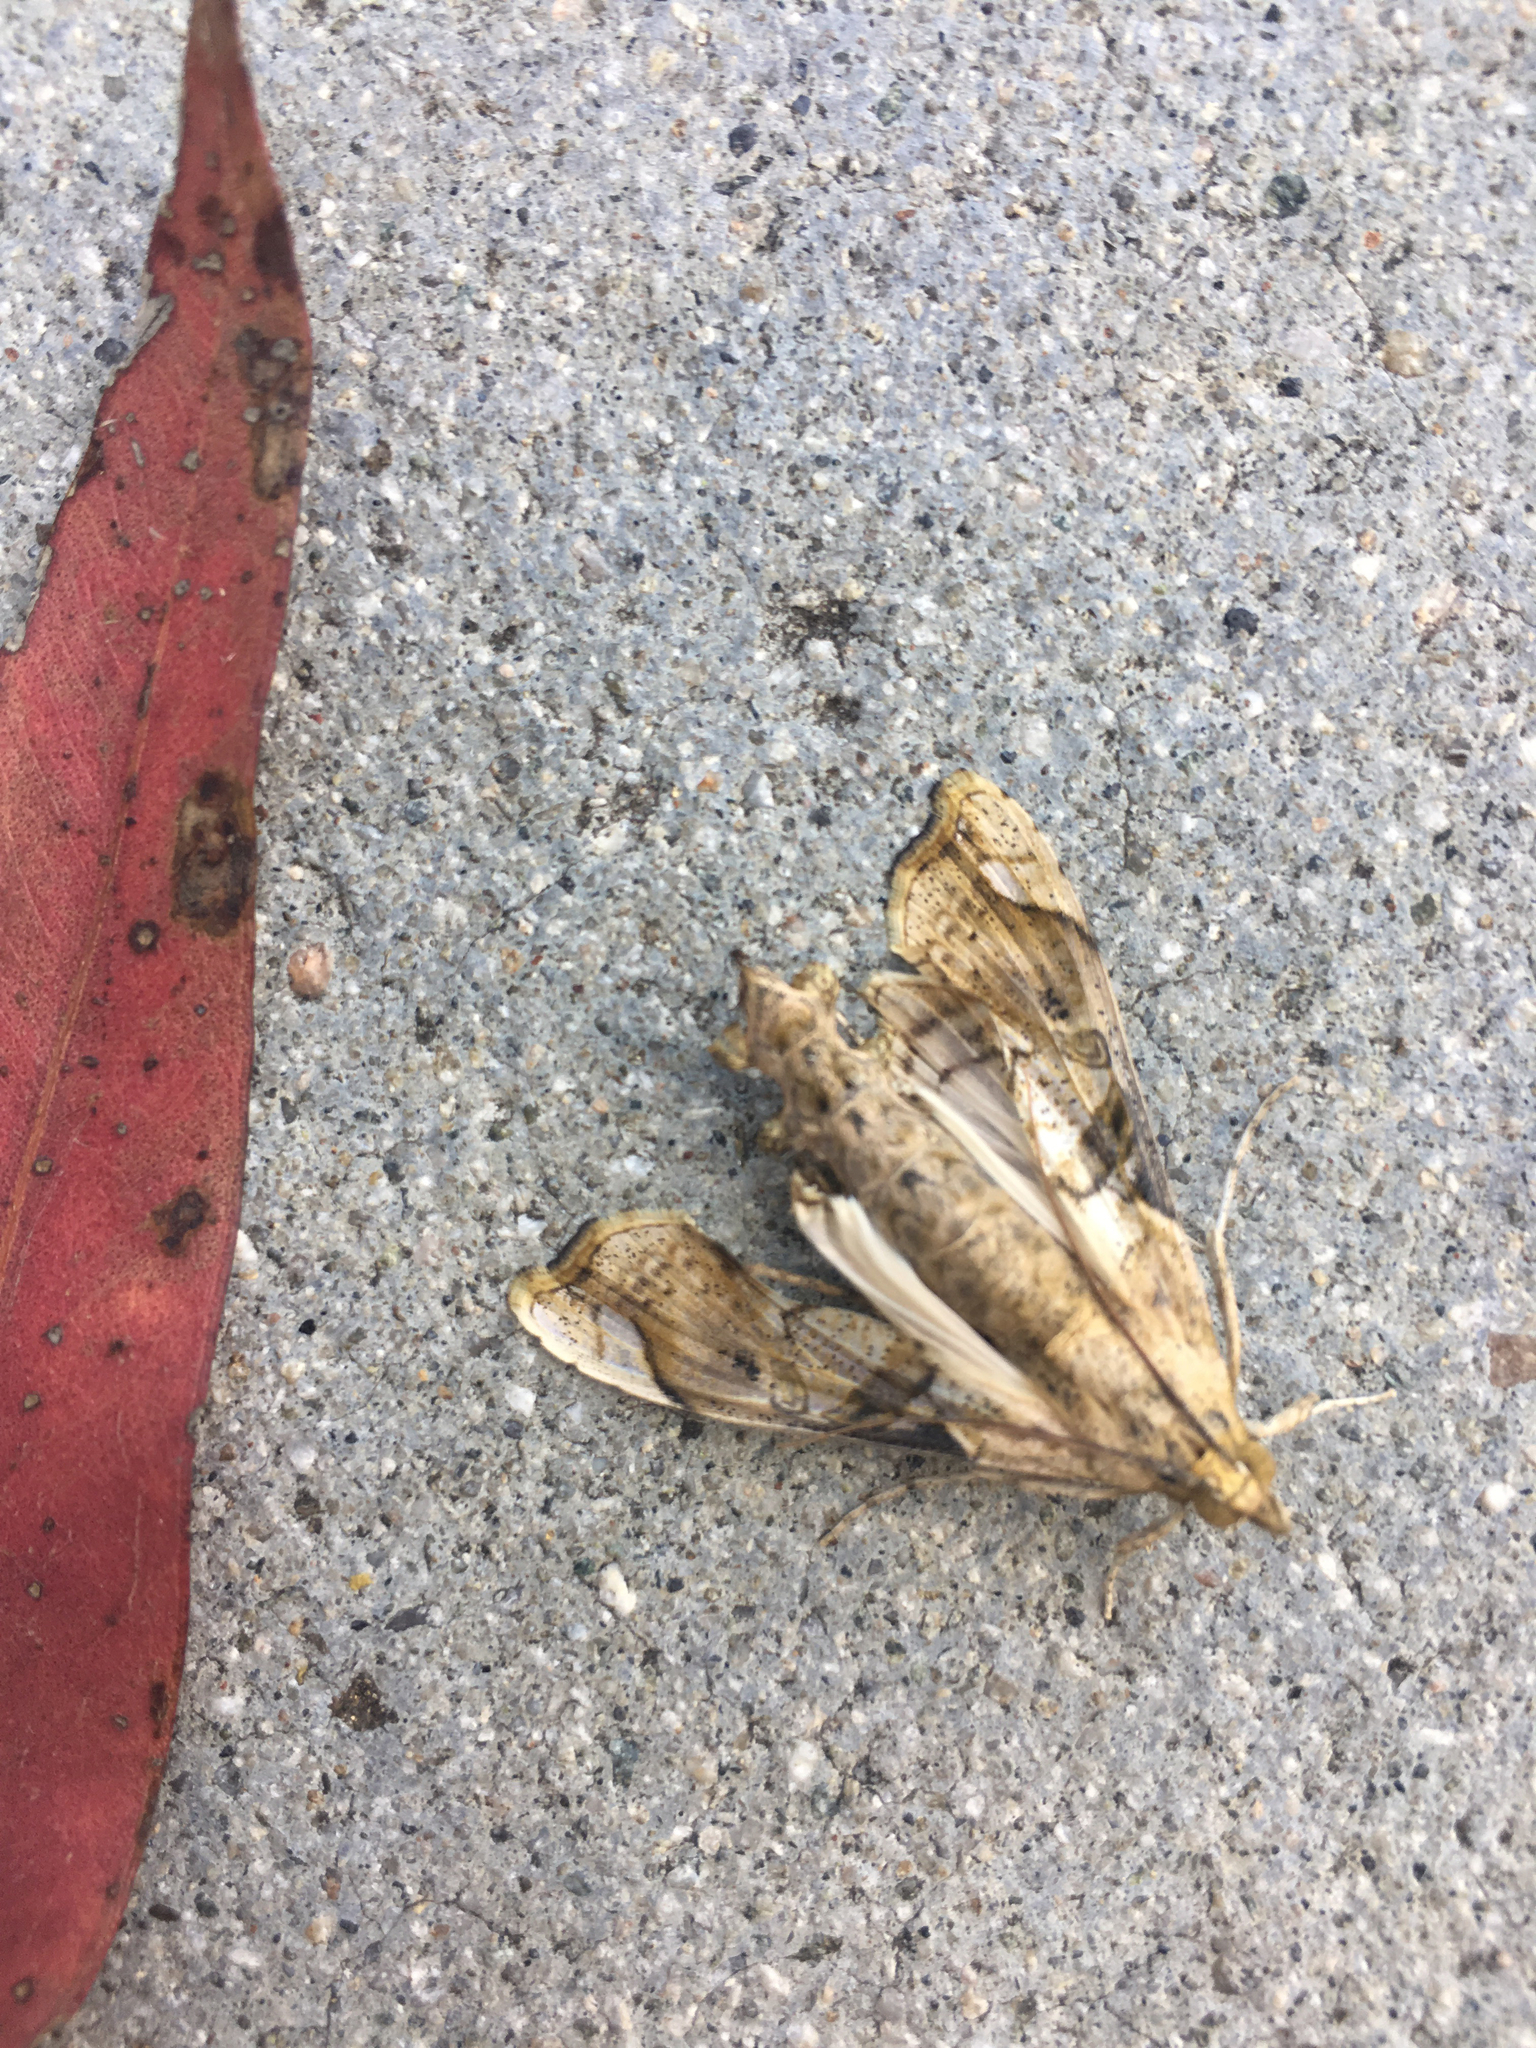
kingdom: Animalia
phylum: Arthropoda
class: Insecta
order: Lepidoptera
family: Crambidae
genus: Terastia
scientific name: Terastia meticulosalis
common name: Moth
